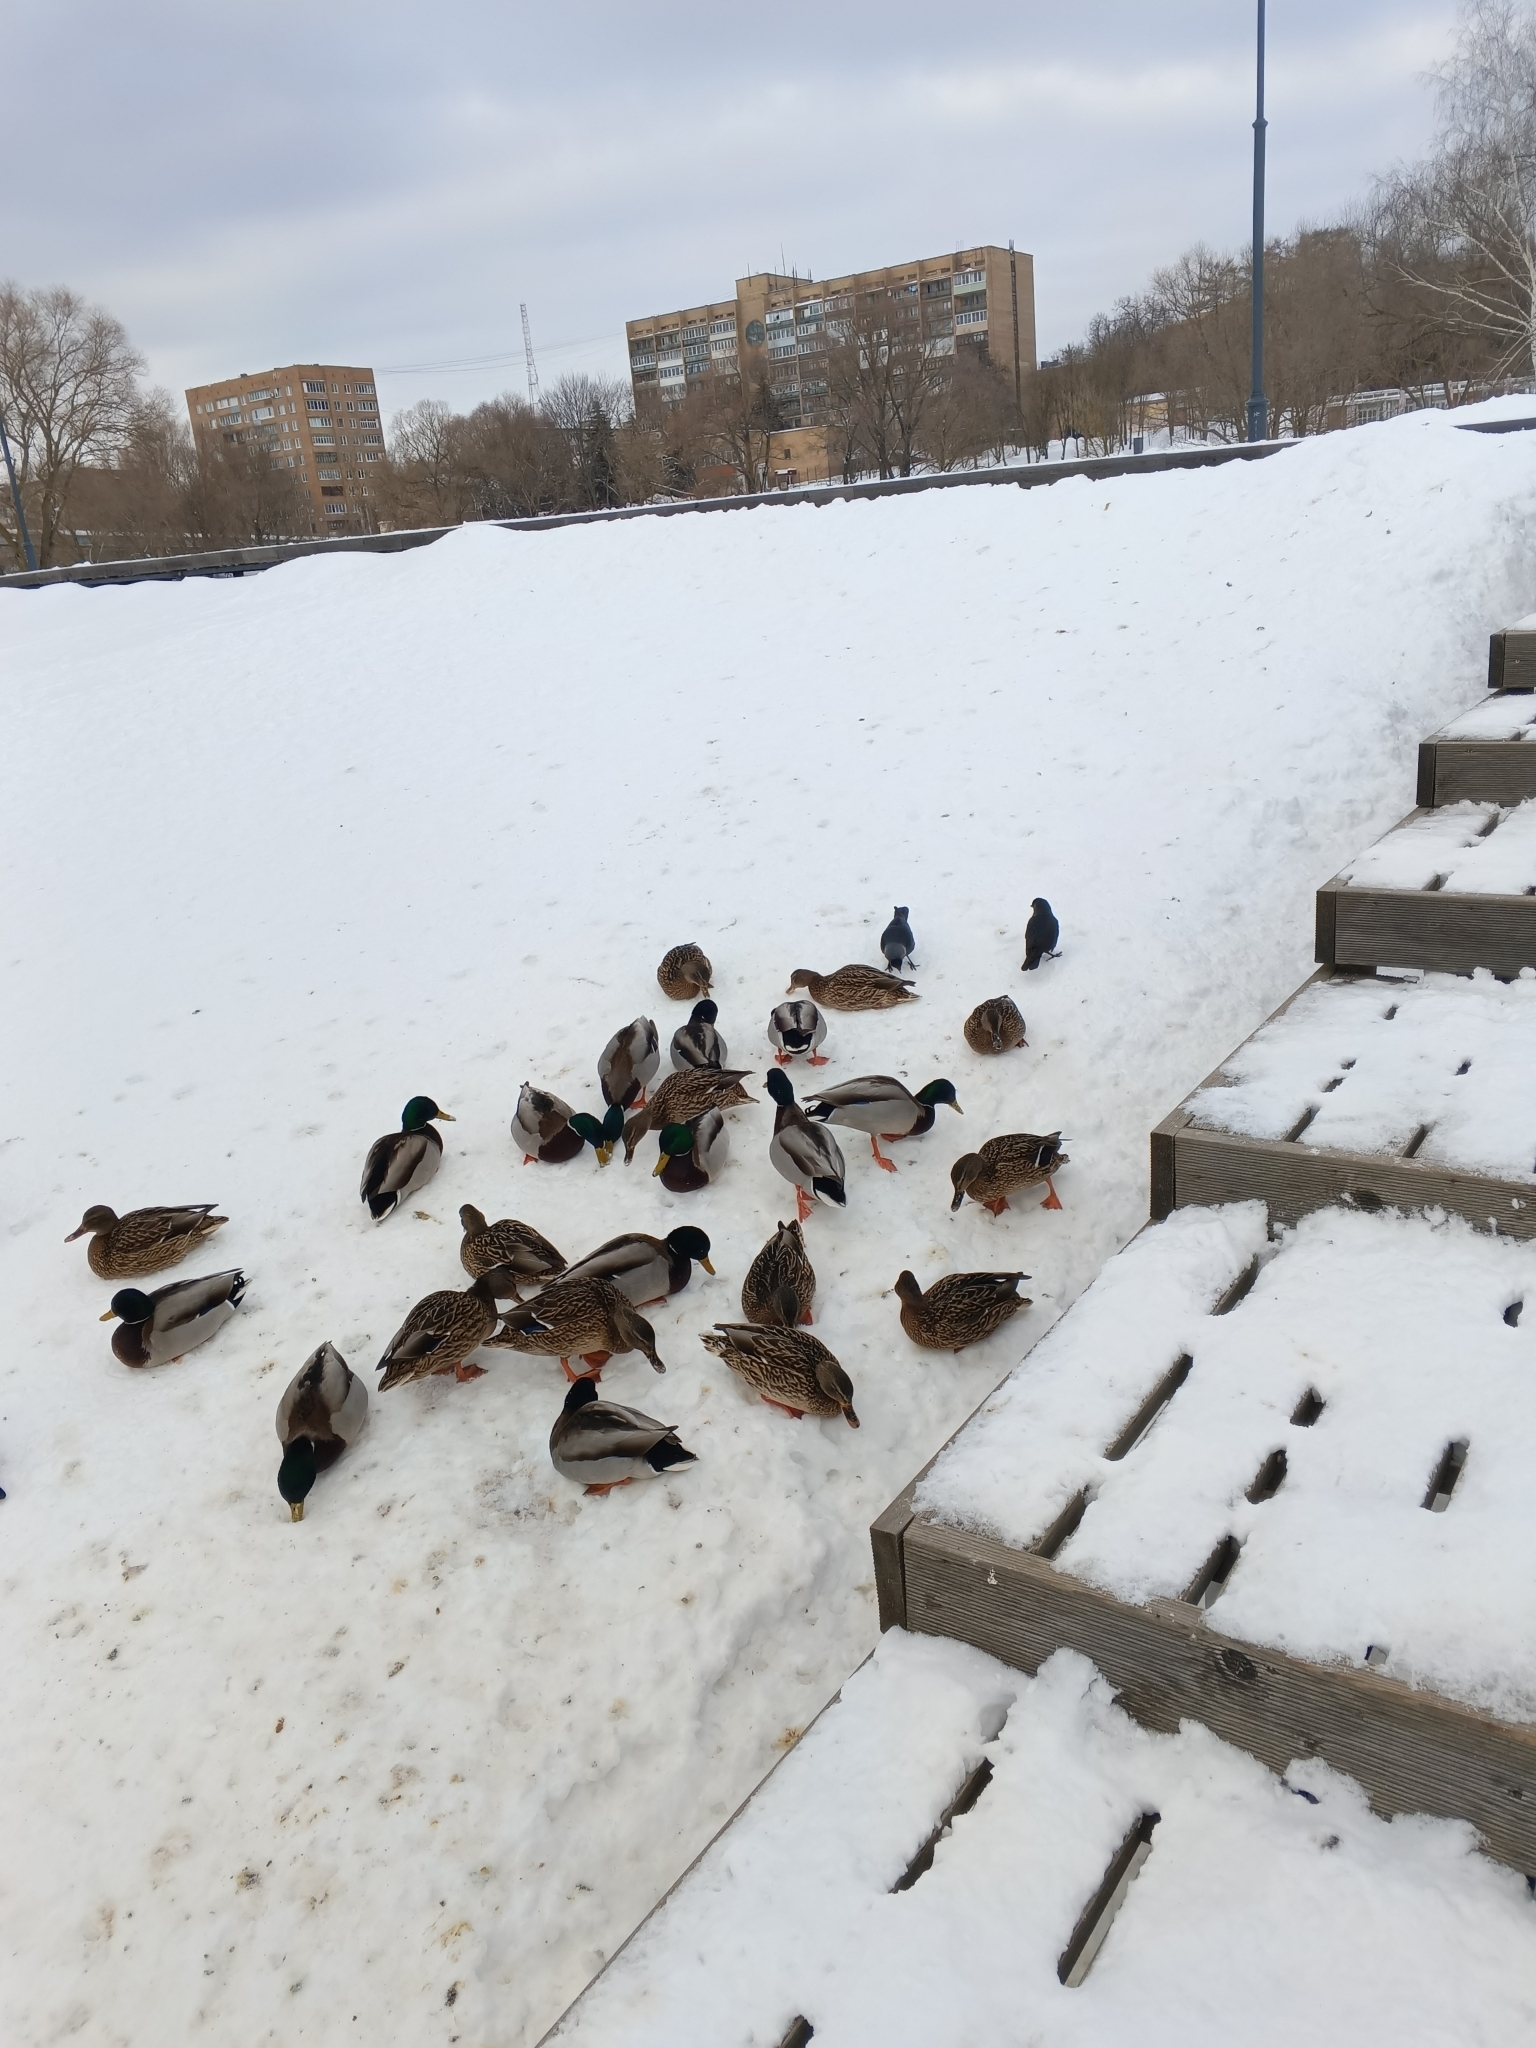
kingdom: Animalia
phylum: Chordata
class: Aves
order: Anseriformes
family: Anatidae
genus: Anas
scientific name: Anas platyrhynchos
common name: Mallard
